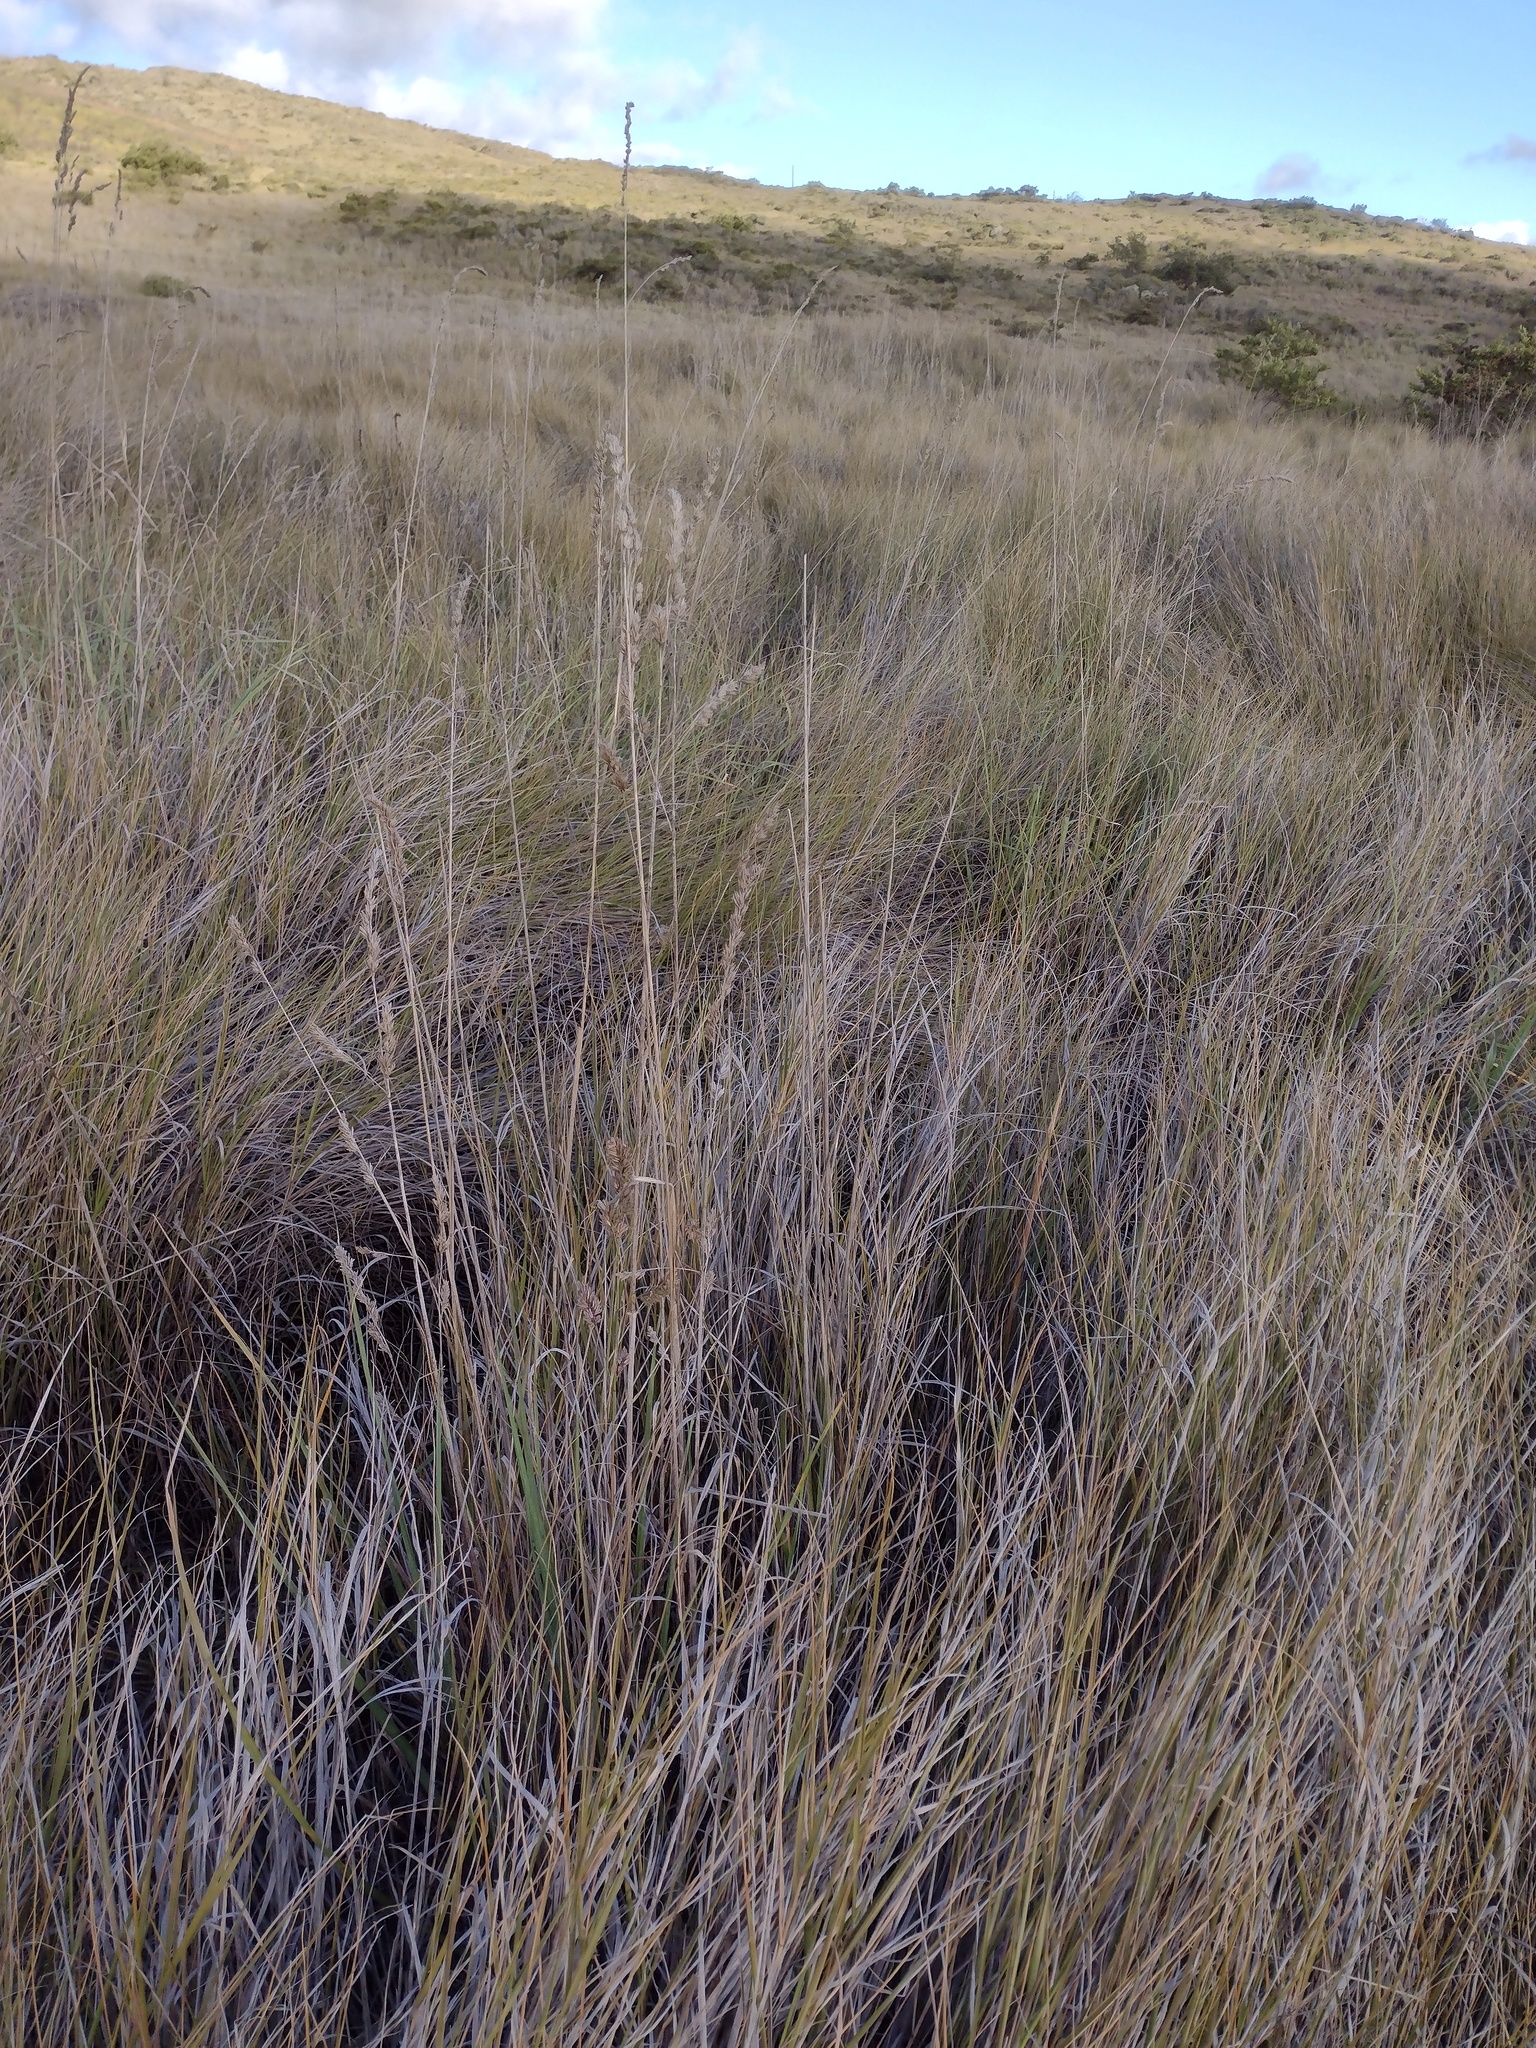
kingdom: Plantae
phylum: Tracheophyta
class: Liliopsida
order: Poales
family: Poaceae
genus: Dactylis
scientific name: Dactylis glomerata
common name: Orchardgrass
